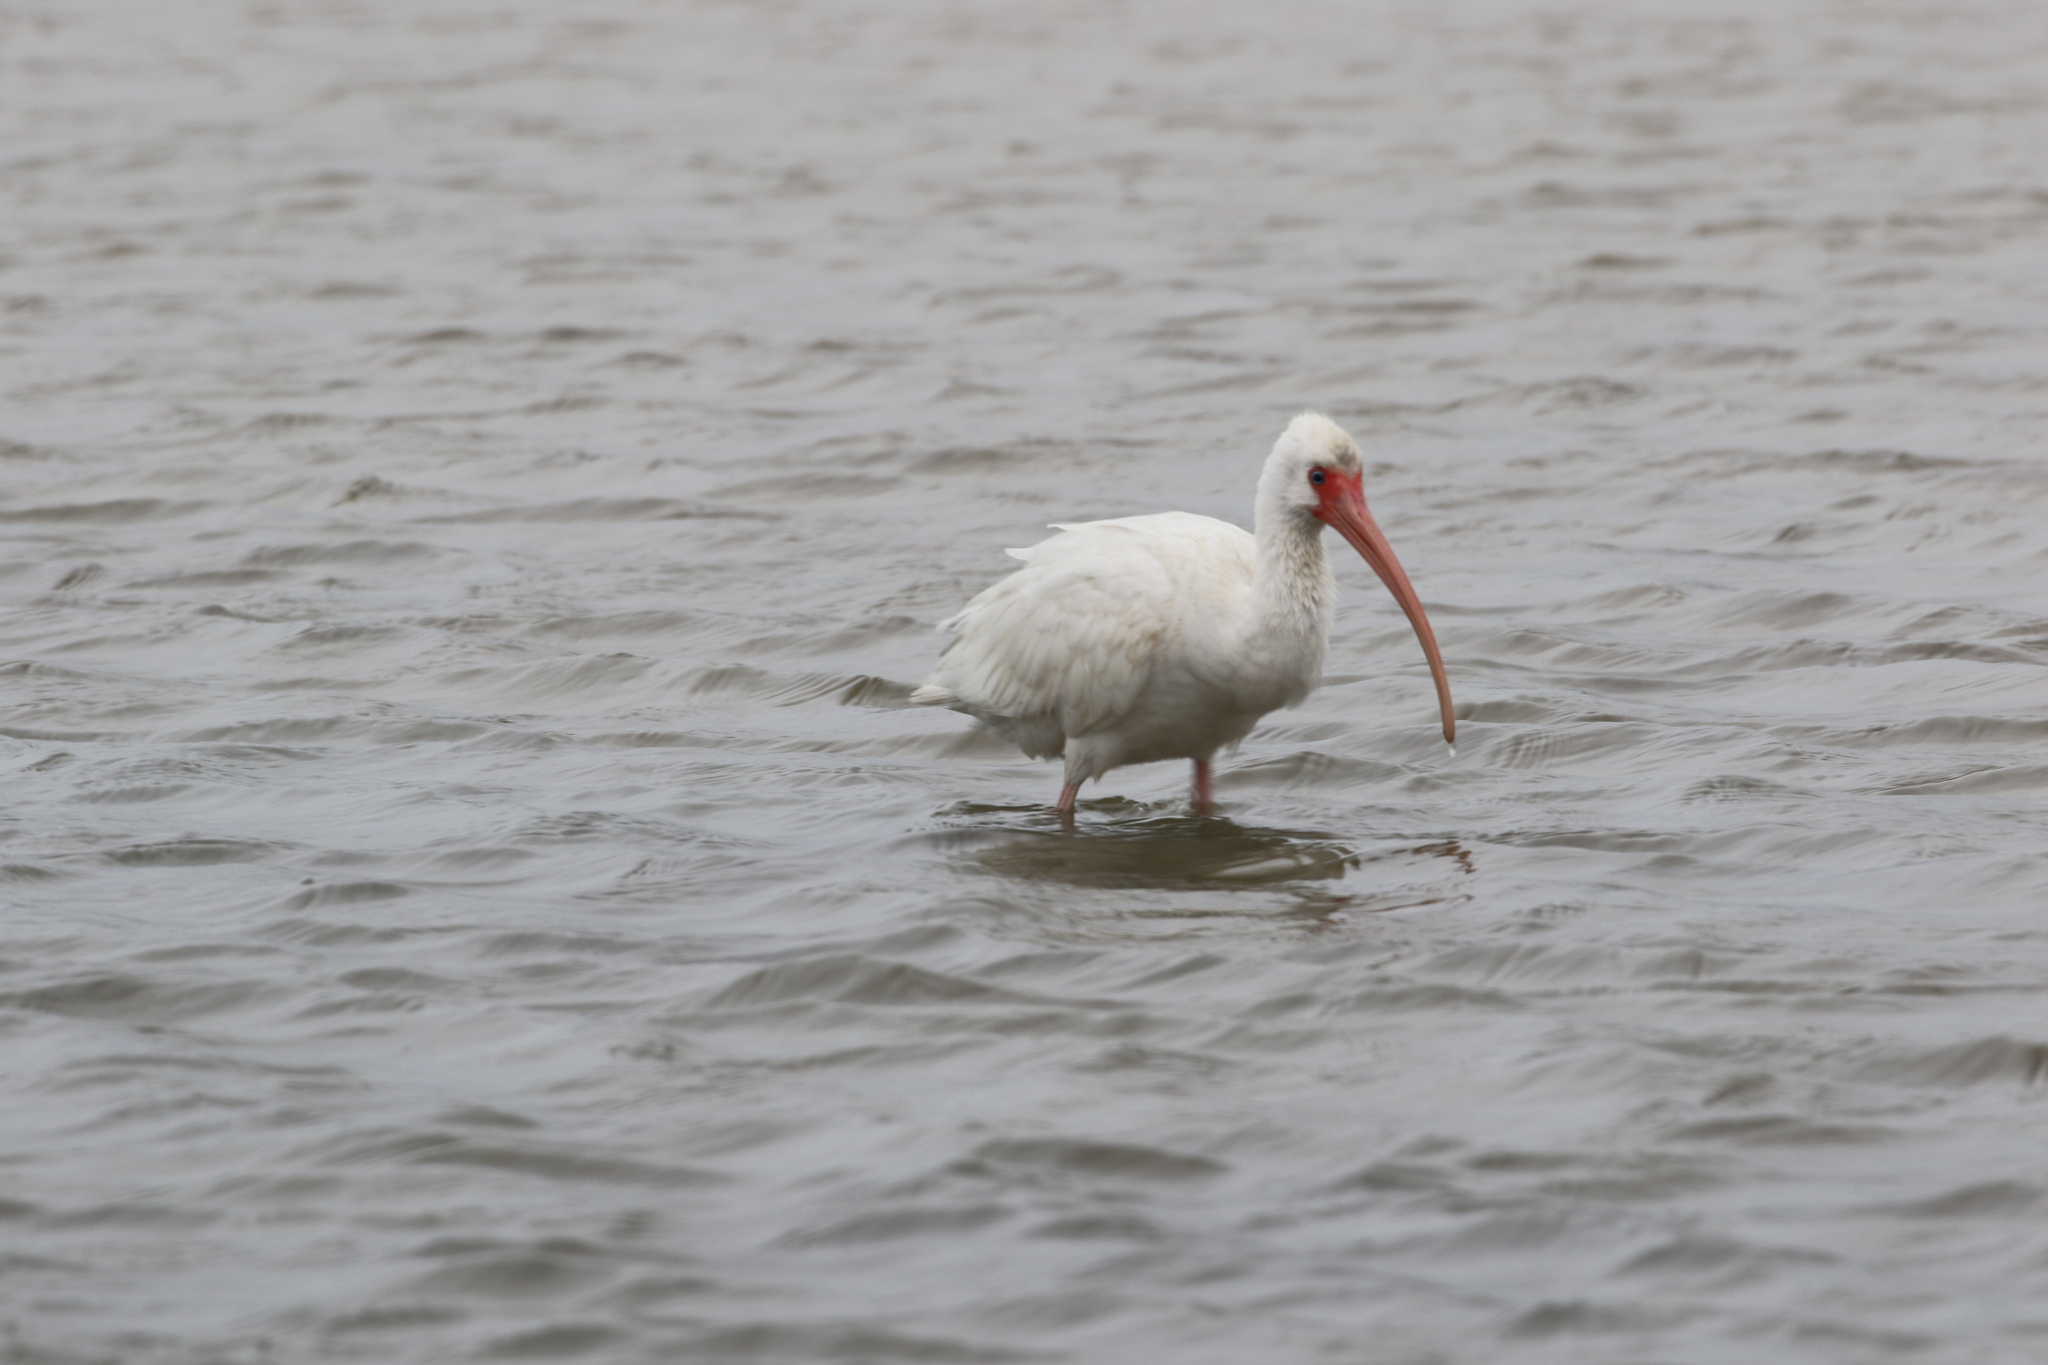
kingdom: Animalia
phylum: Chordata
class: Aves
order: Pelecaniformes
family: Threskiornithidae
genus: Eudocimus
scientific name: Eudocimus albus
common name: White ibis
